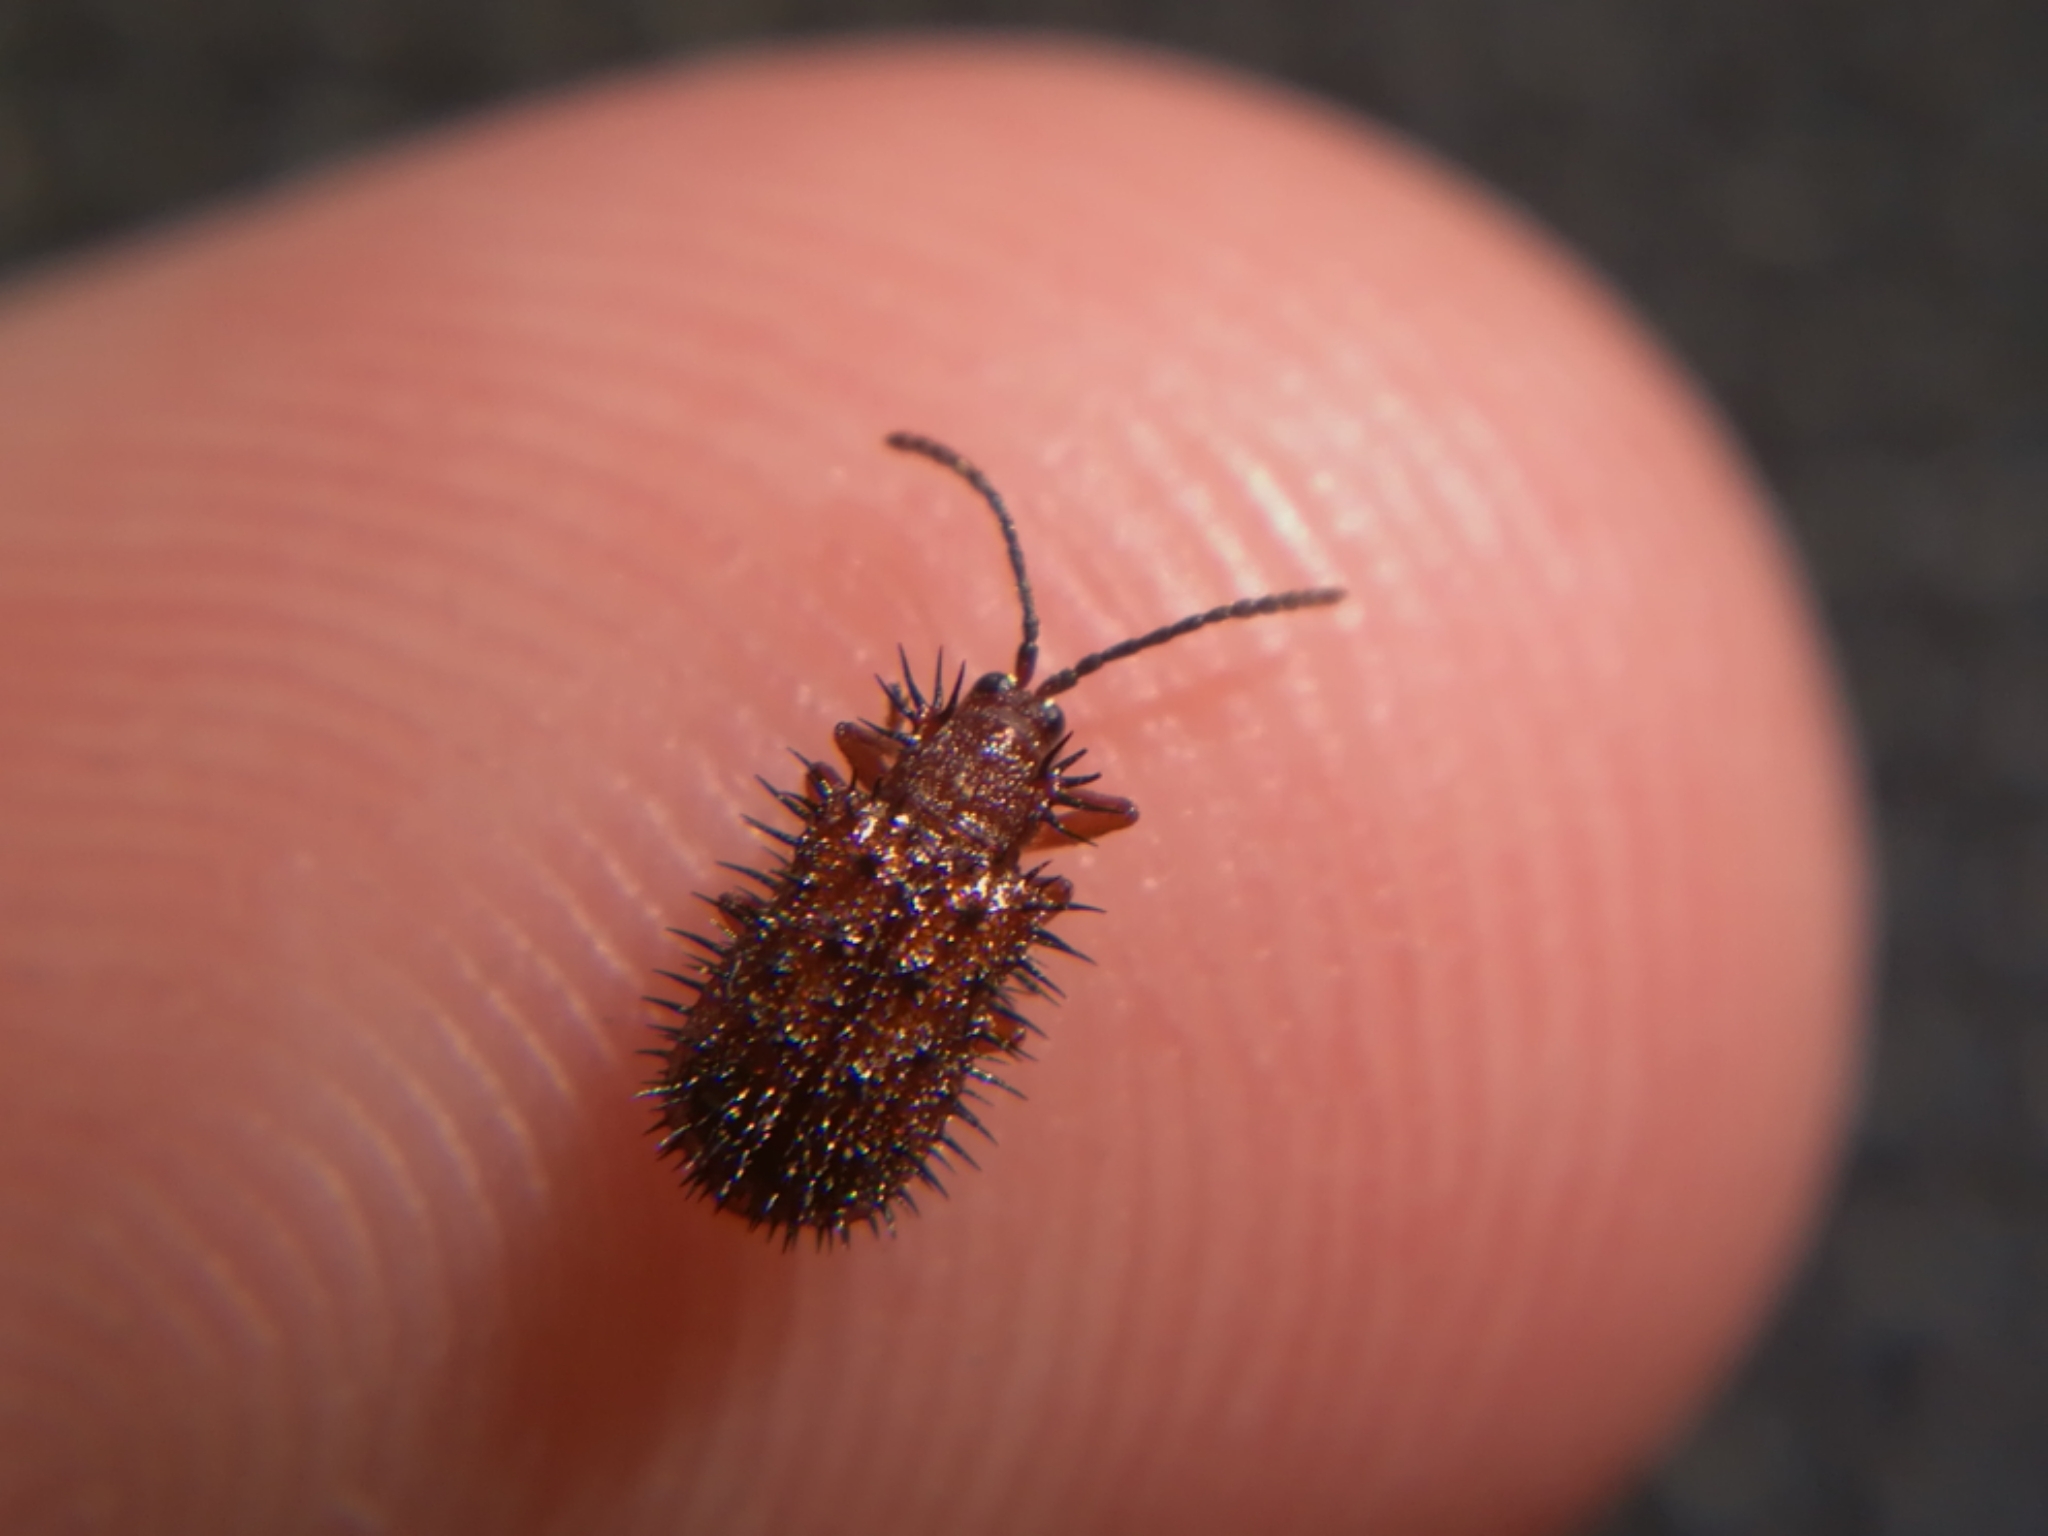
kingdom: Animalia
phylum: Arthropoda
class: Insecta
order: Coleoptera
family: Chrysomelidae
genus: Dicladispa
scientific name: Dicladispa testacea
